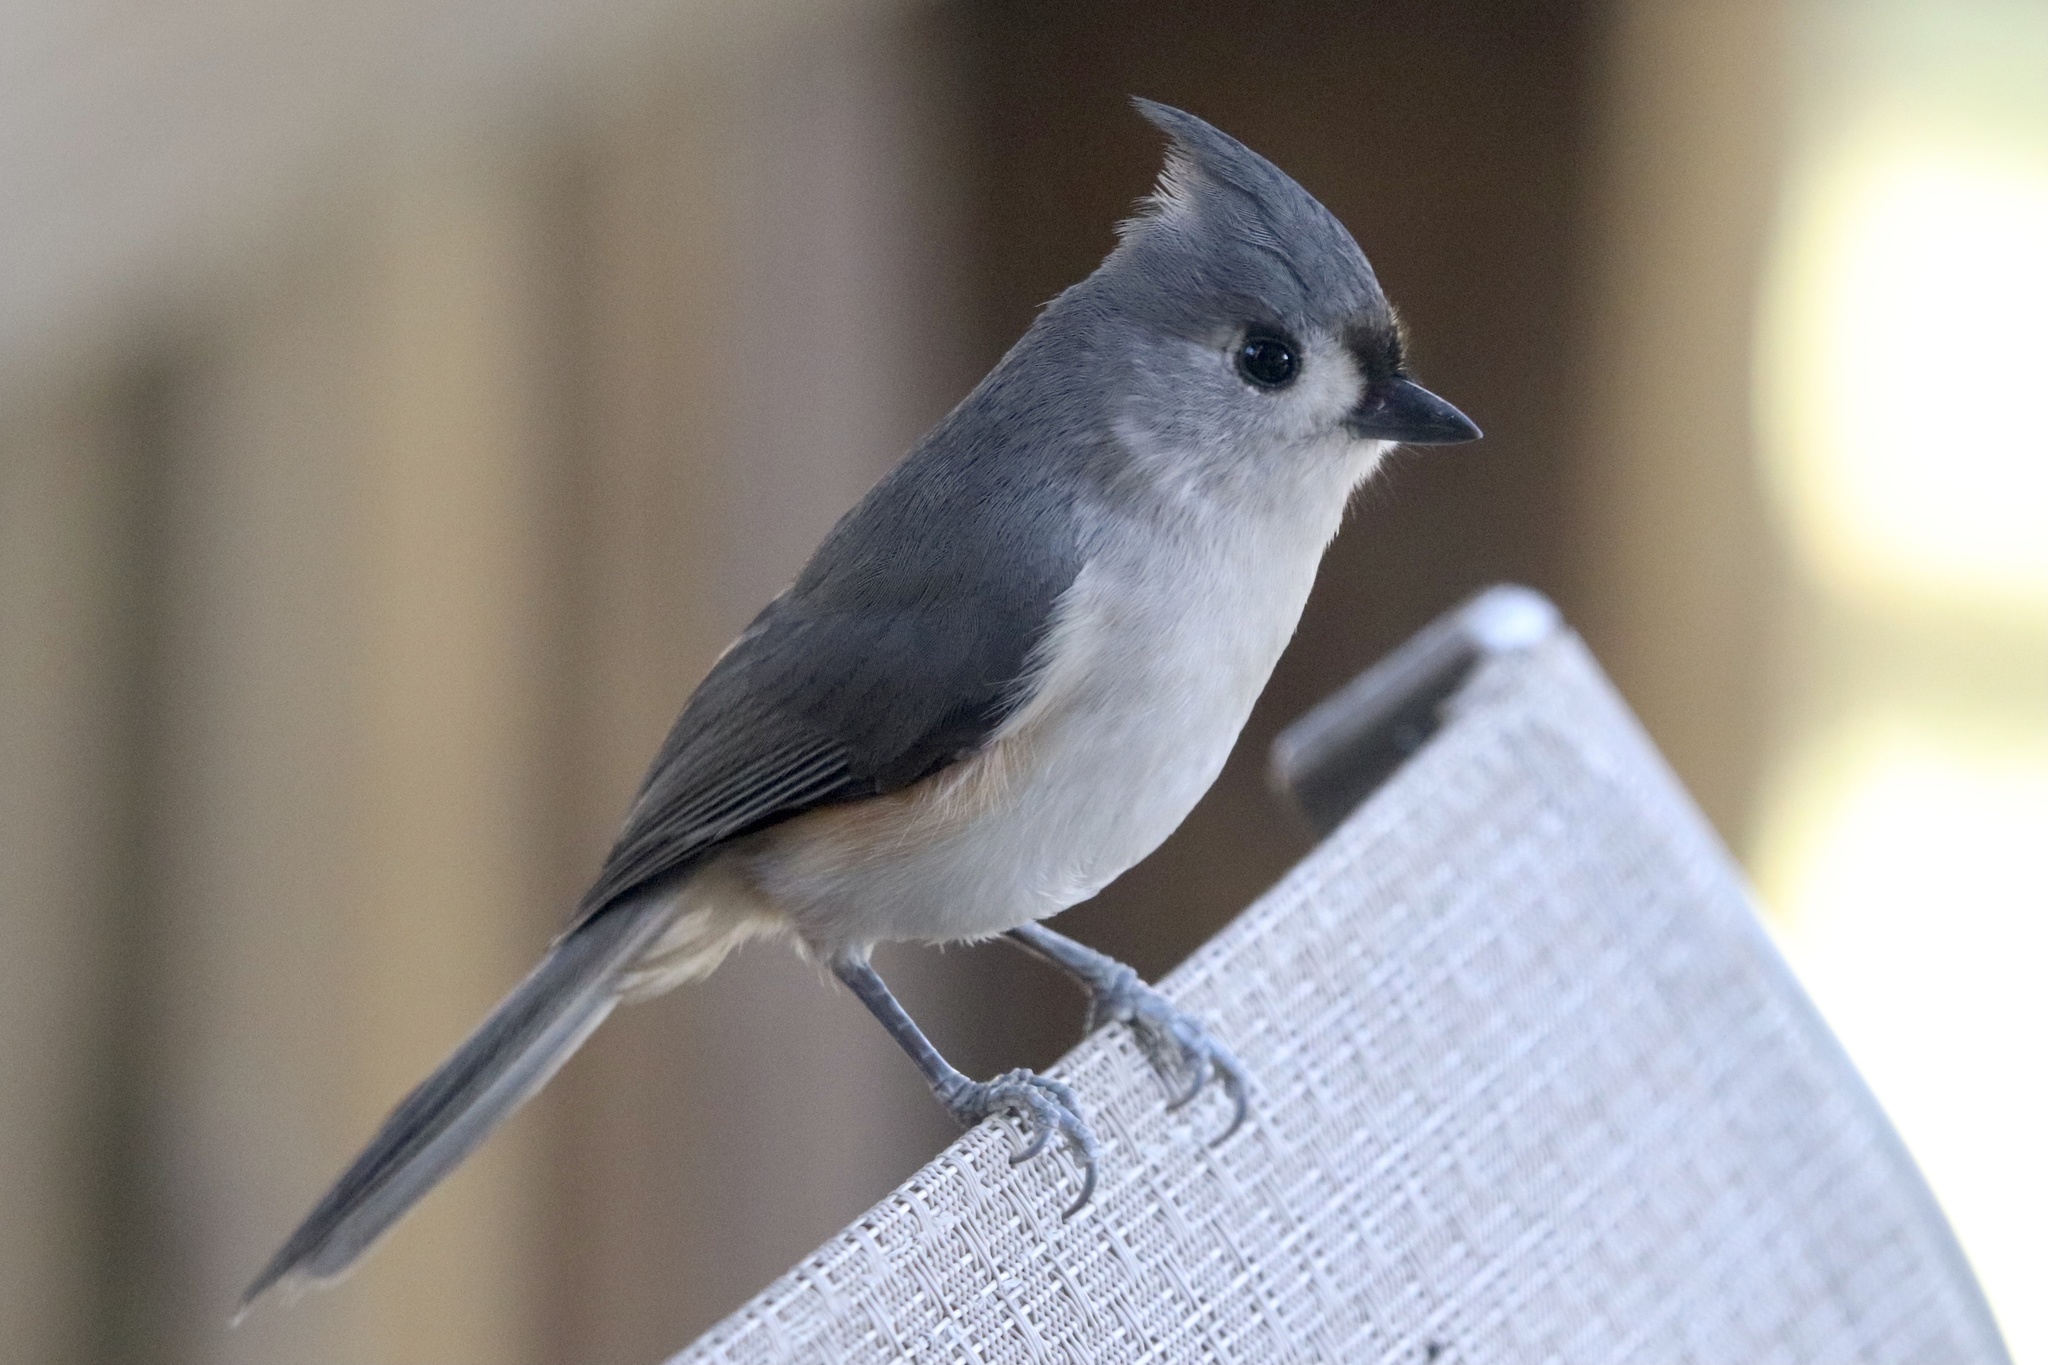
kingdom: Animalia
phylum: Chordata
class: Aves
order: Passeriformes
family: Paridae
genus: Baeolophus
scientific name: Baeolophus bicolor
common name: Tufted titmouse
